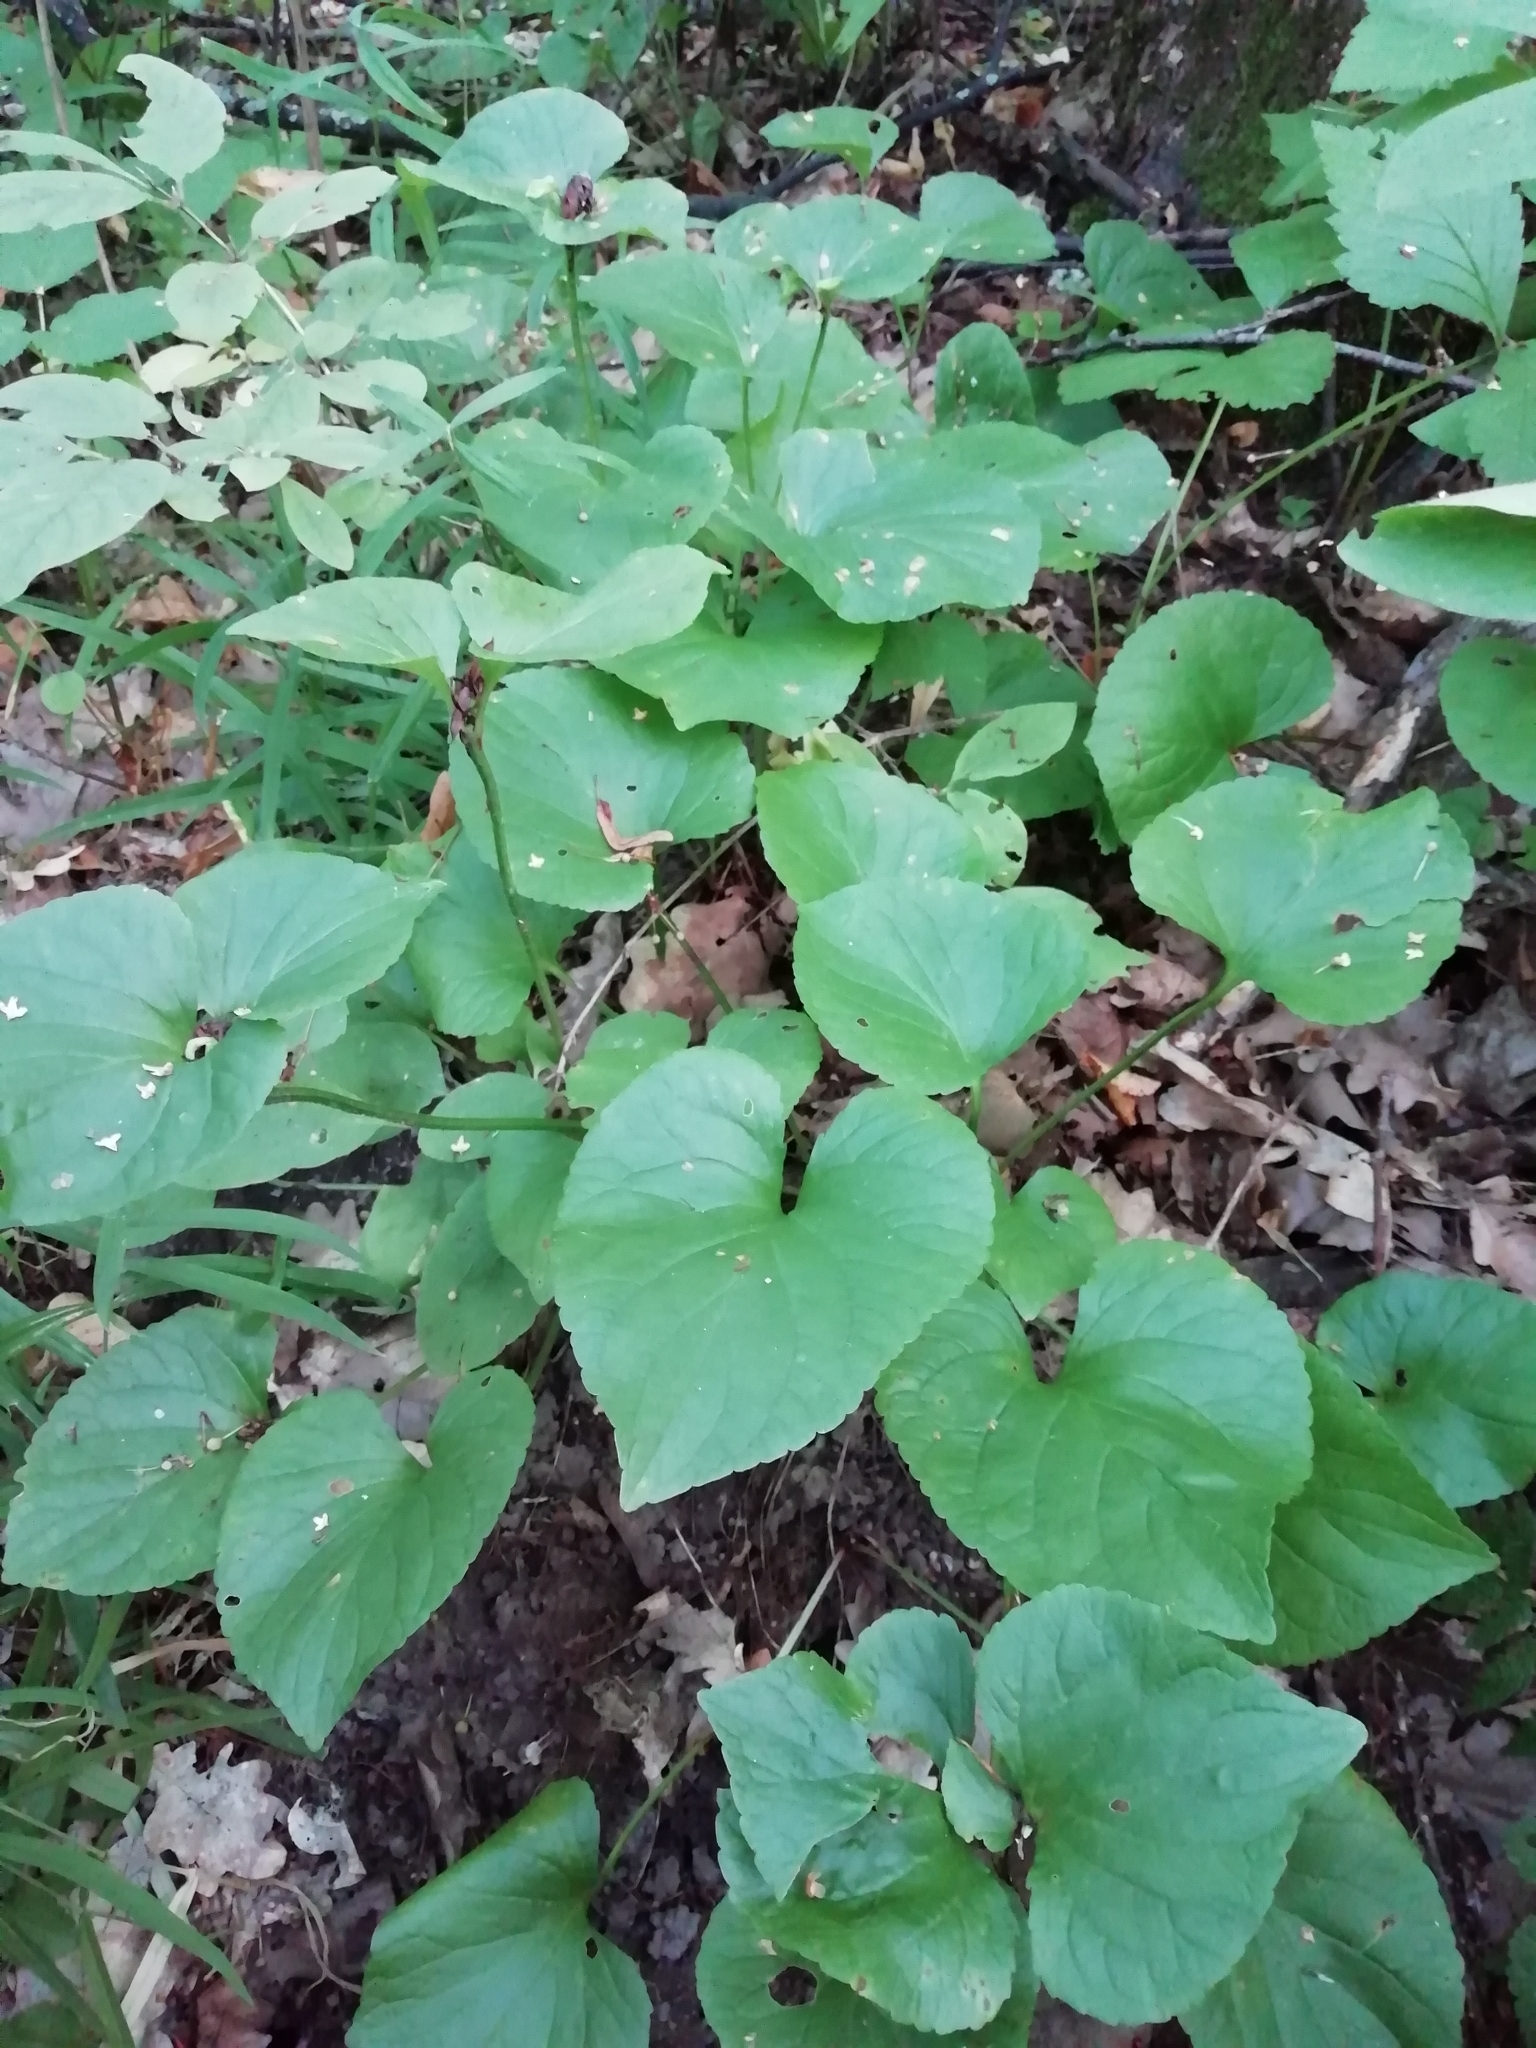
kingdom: Plantae
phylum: Tracheophyta
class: Magnoliopsida
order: Malpighiales
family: Violaceae
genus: Viola
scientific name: Viola mirabilis
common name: Wonder violet
